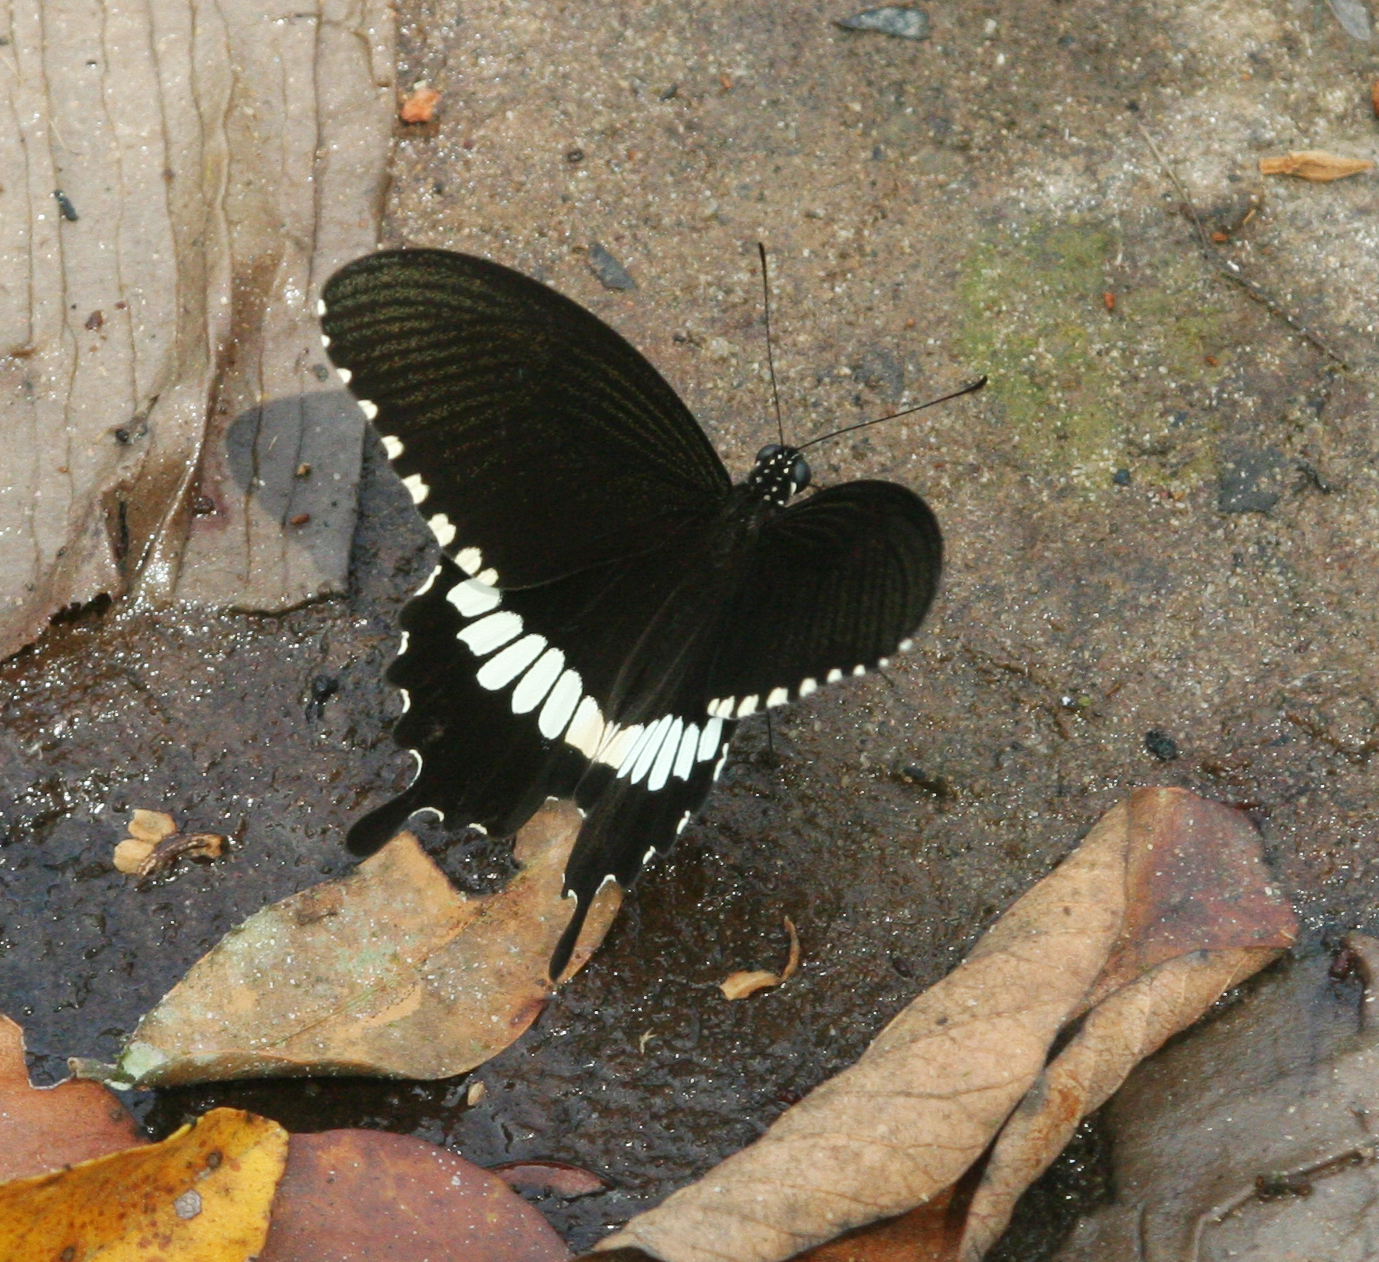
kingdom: Animalia
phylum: Arthropoda
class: Insecta
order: Lepidoptera
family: Papilionidae
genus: Papilio
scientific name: Papilio polytes
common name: Common mormon
